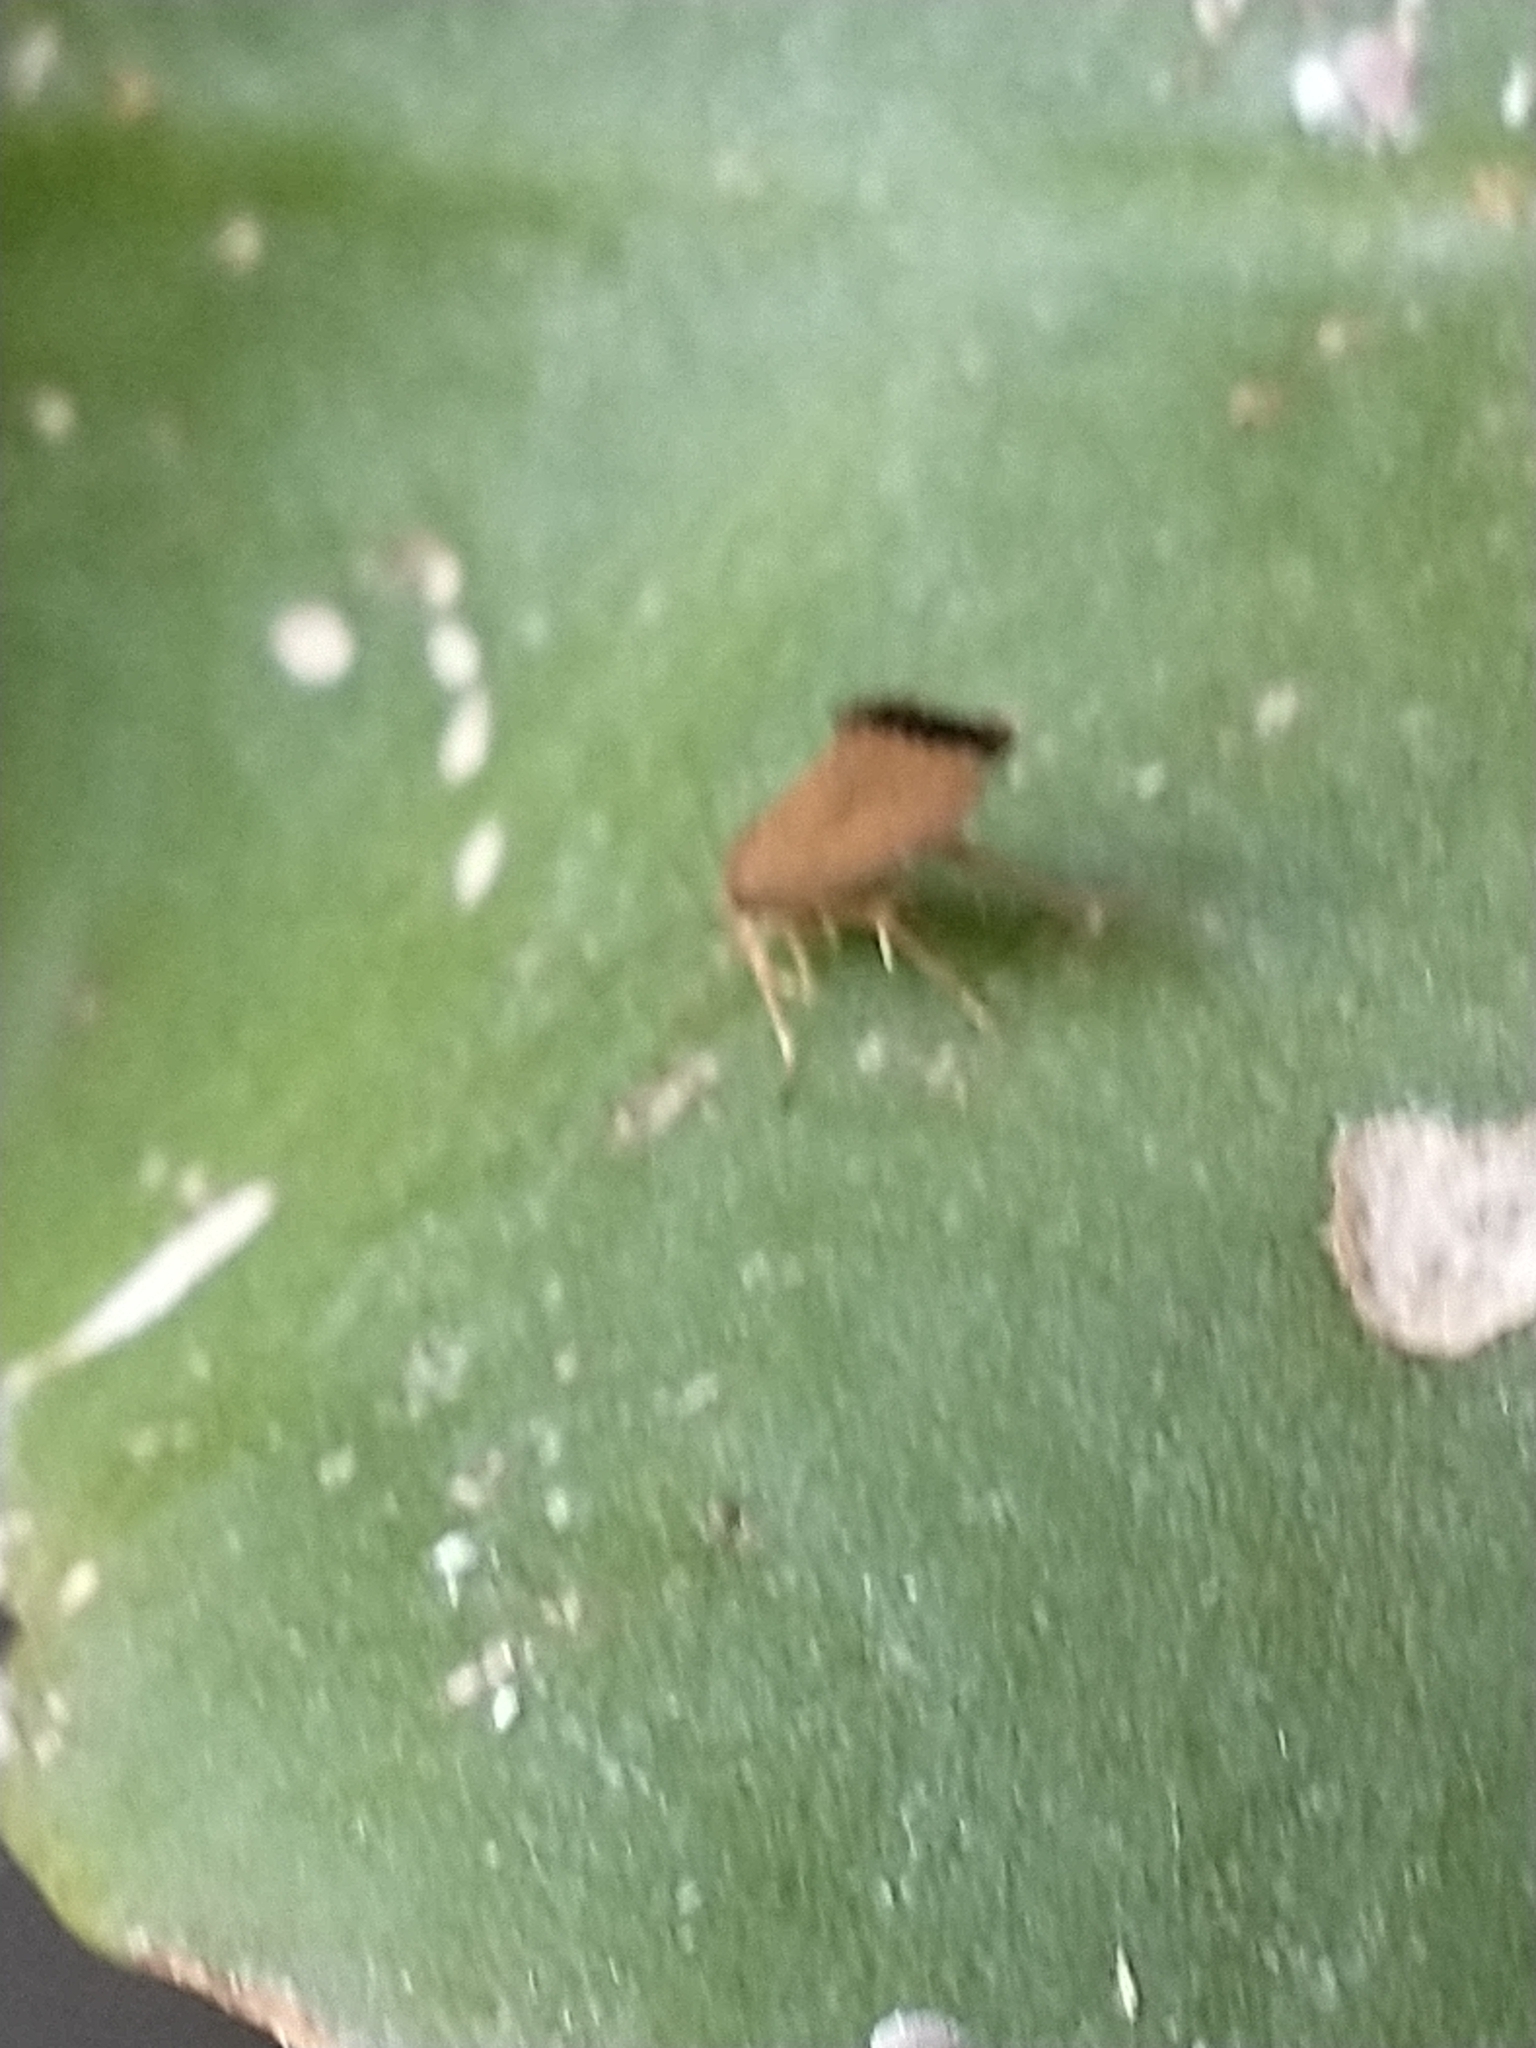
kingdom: Animalia
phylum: Arthropoda
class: Insecta
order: Lepidoptera
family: Oecophoridae
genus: Borkhausenia
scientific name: Borkhausenia Crassa unitella
